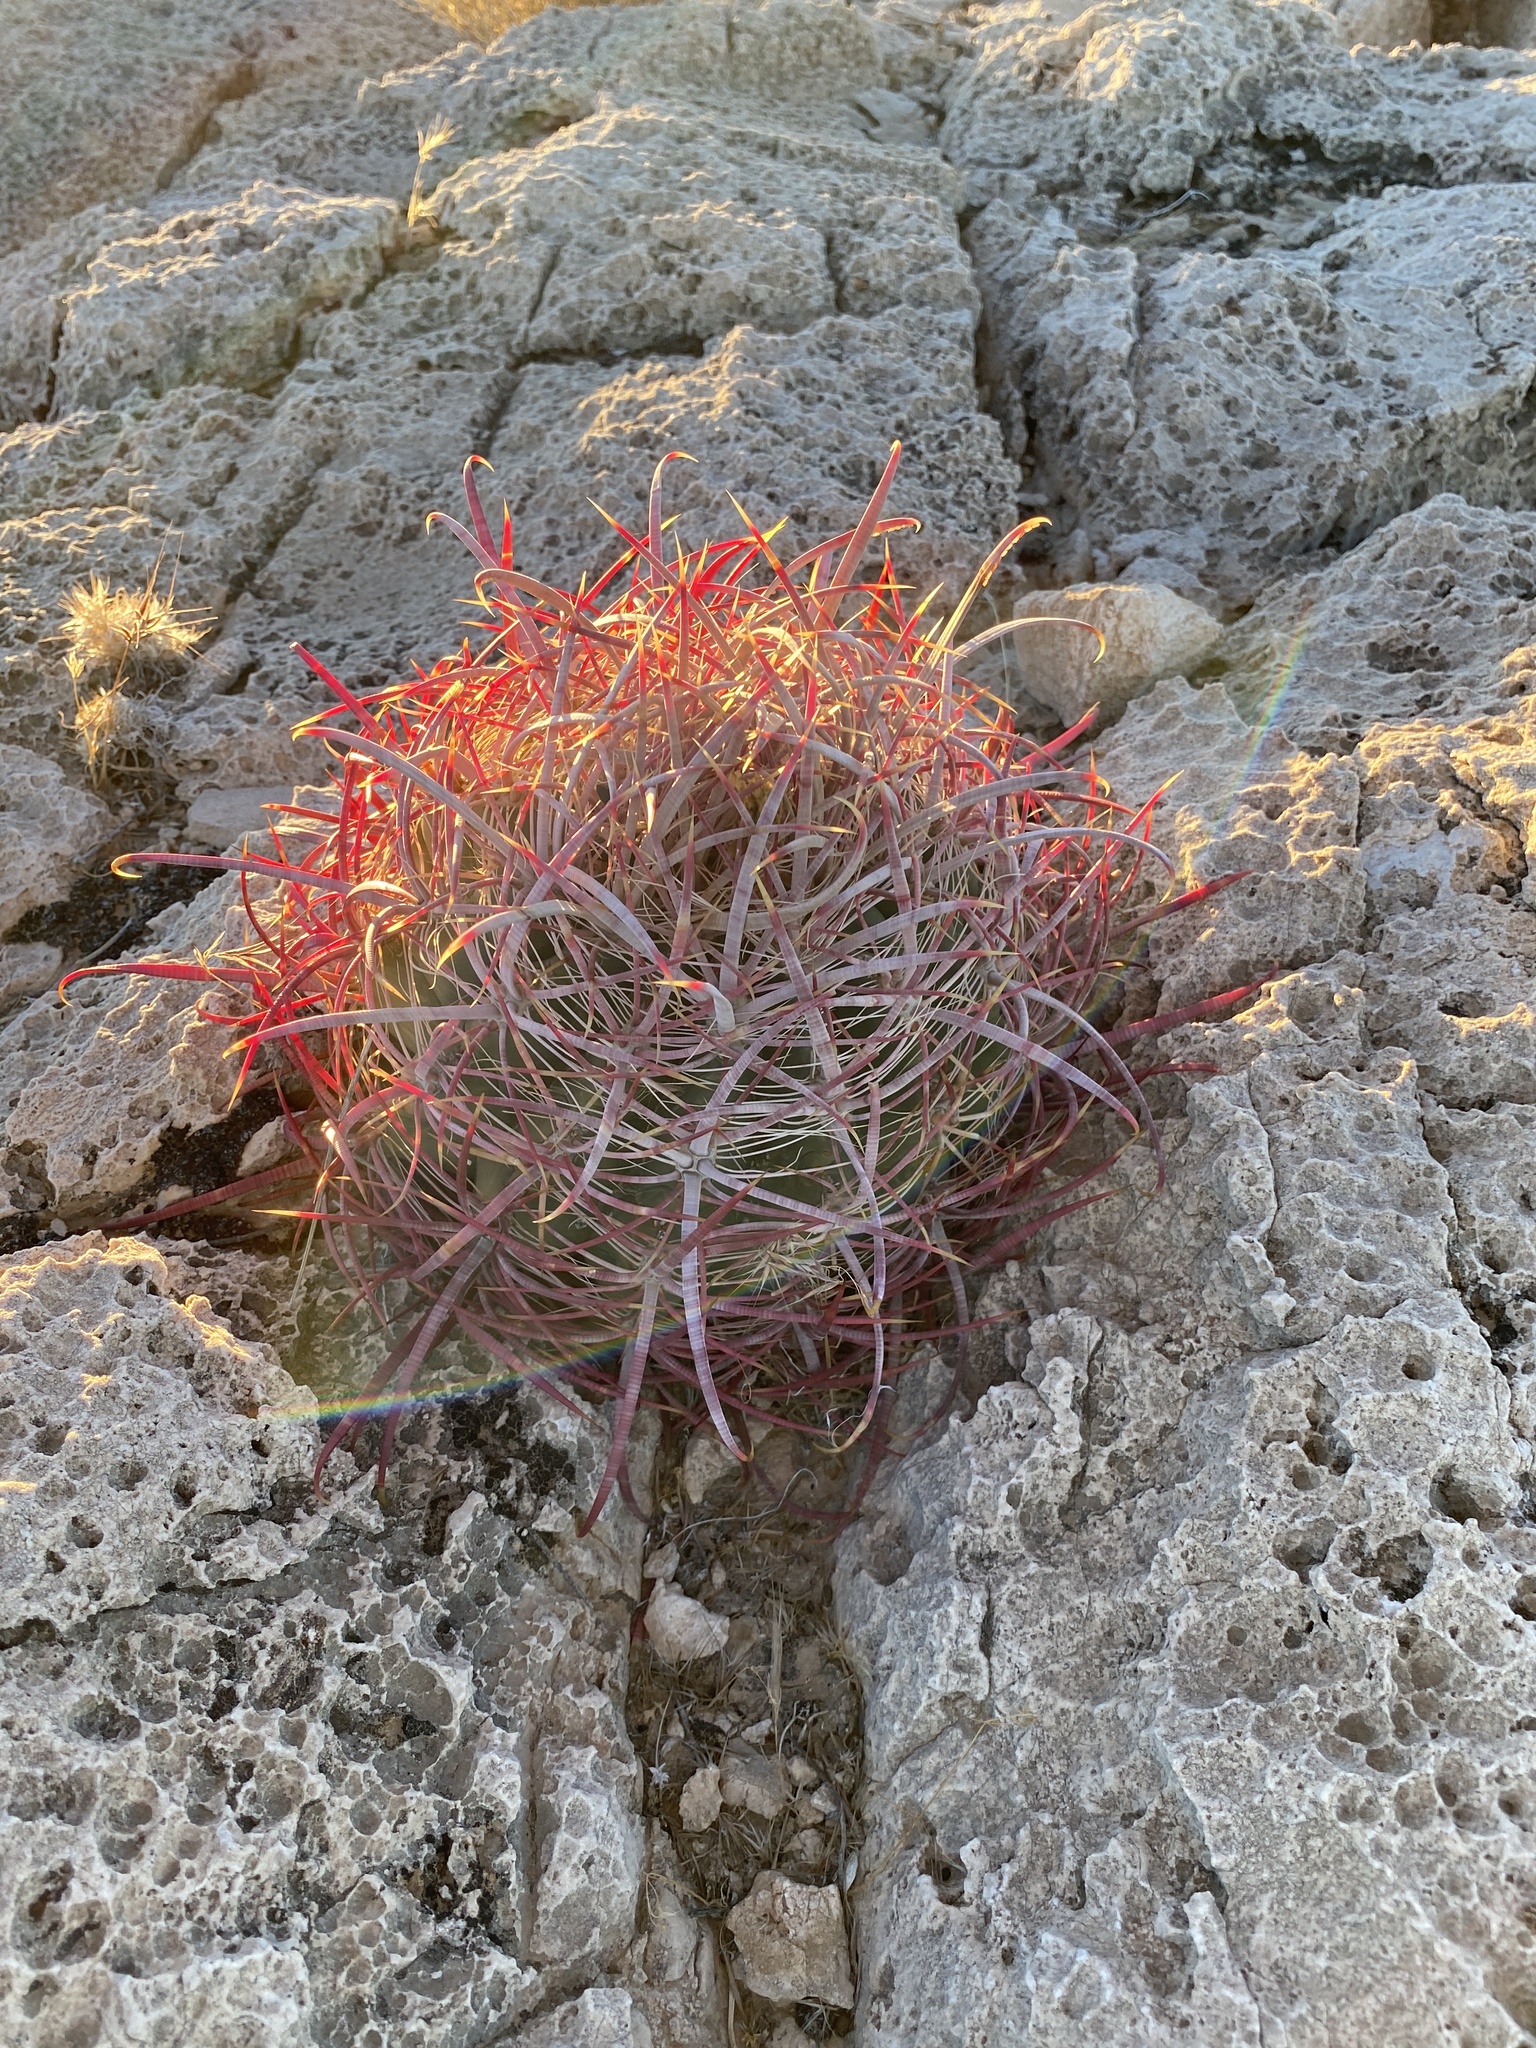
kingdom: Plantae
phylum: Tracheophyta
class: Magnoliopsida
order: Caryophyllales
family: Cactaceae
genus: Ferocactus
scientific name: Ferocactus cylindraceus
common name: California barrel cactus
